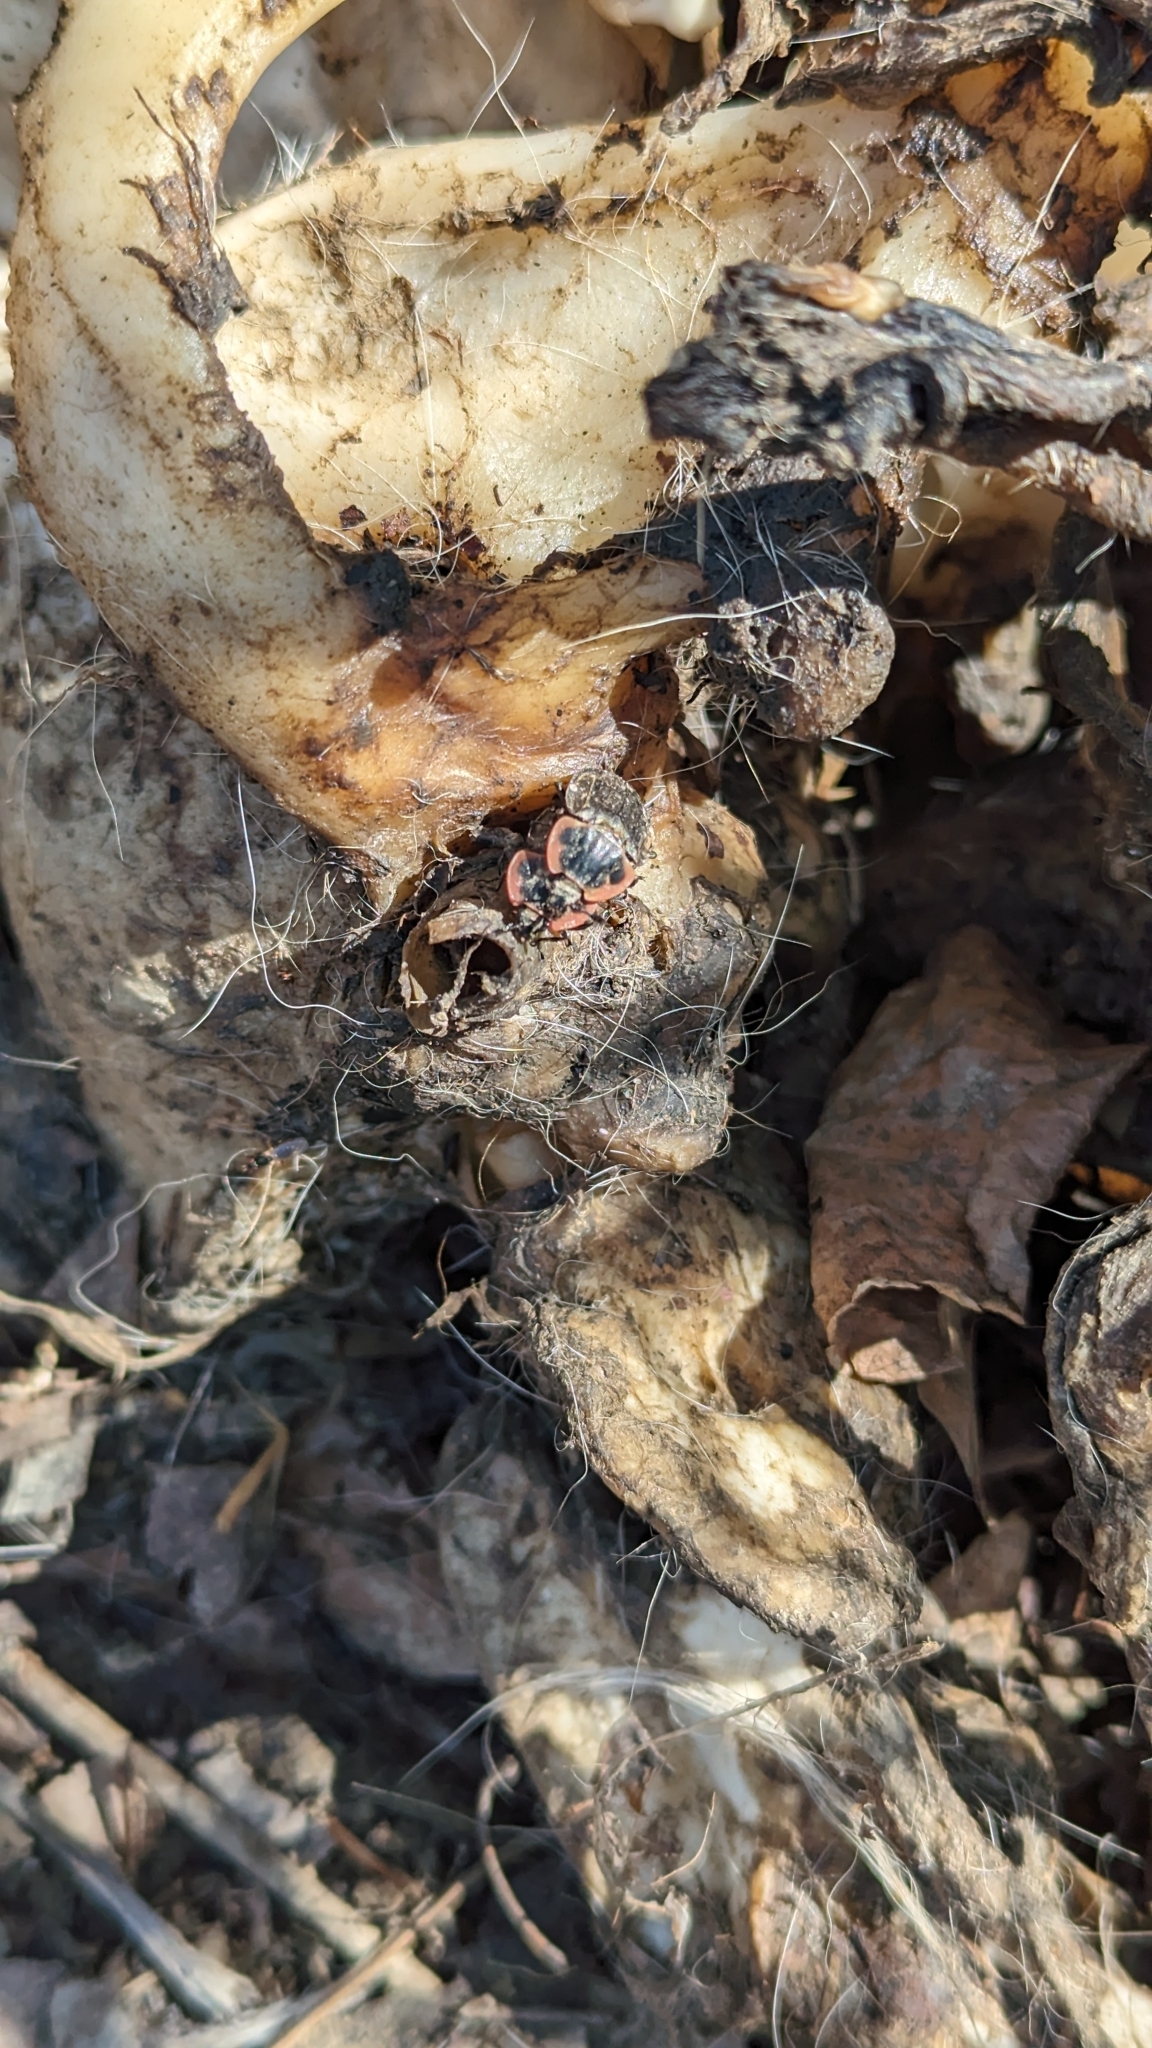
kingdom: Animalia
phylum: Arthropoda
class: Insecta
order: Coleoptera
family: Staphylinidae
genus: Oiceoptoma
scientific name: Oiceoptoma noveboracense
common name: Margined carrion beetle
